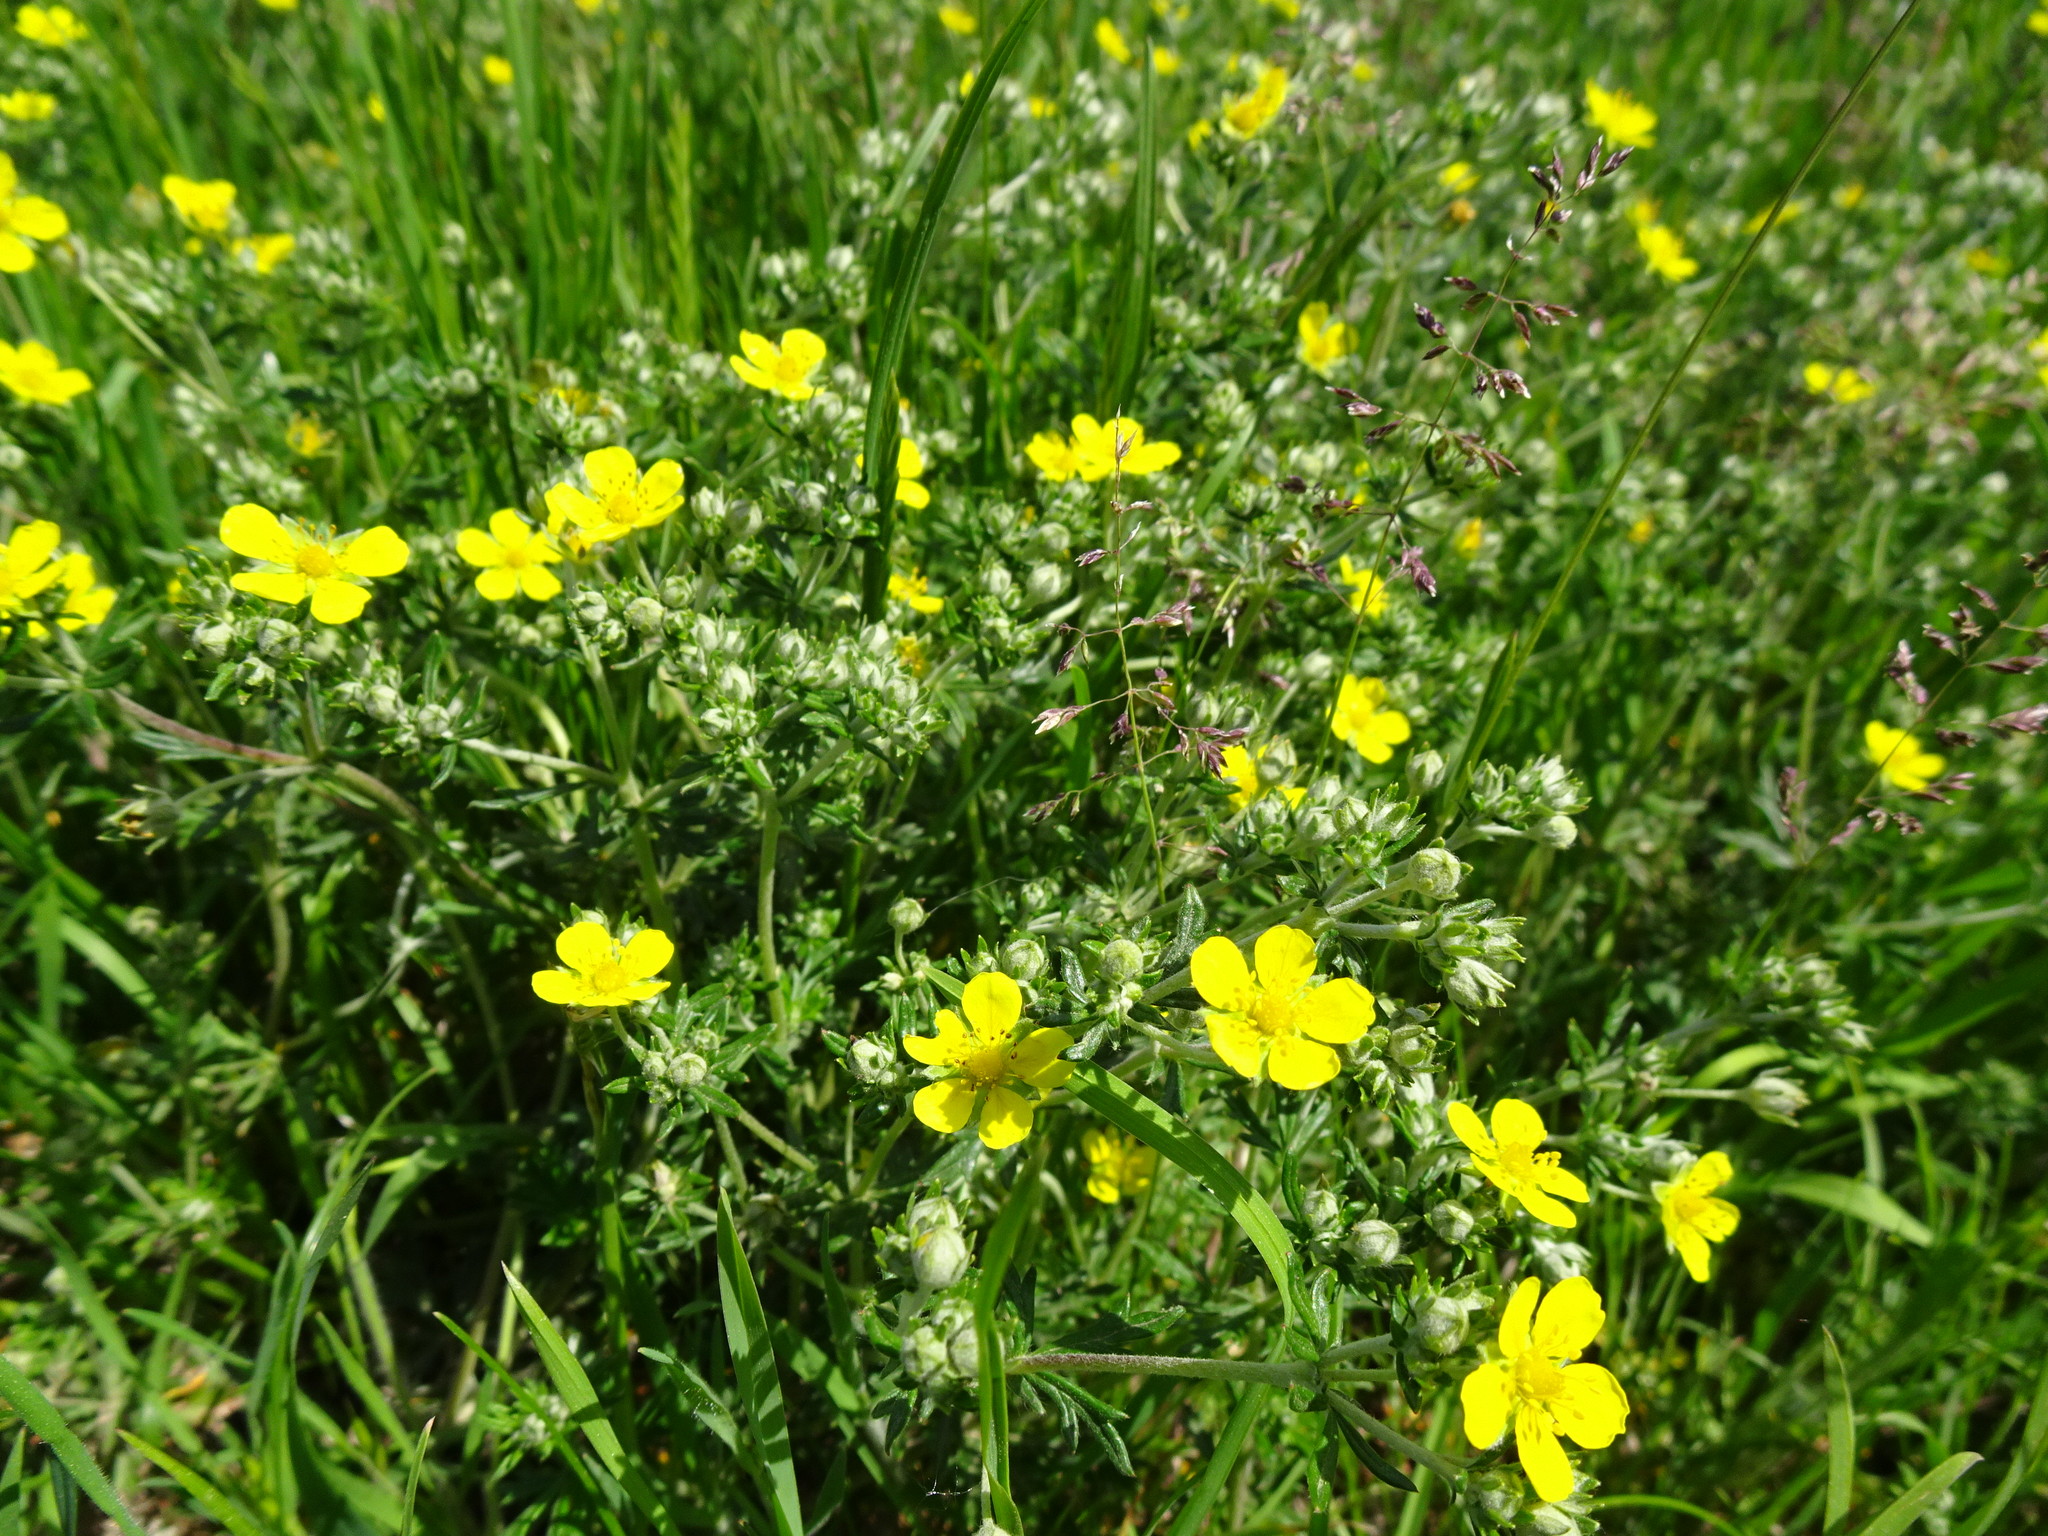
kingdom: Plantae
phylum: Tracheophyta
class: Magnoliopsida
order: Rosales
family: Rosaceae
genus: Potentilla
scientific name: Potentilla argentea
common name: Hoary cinquefoil
